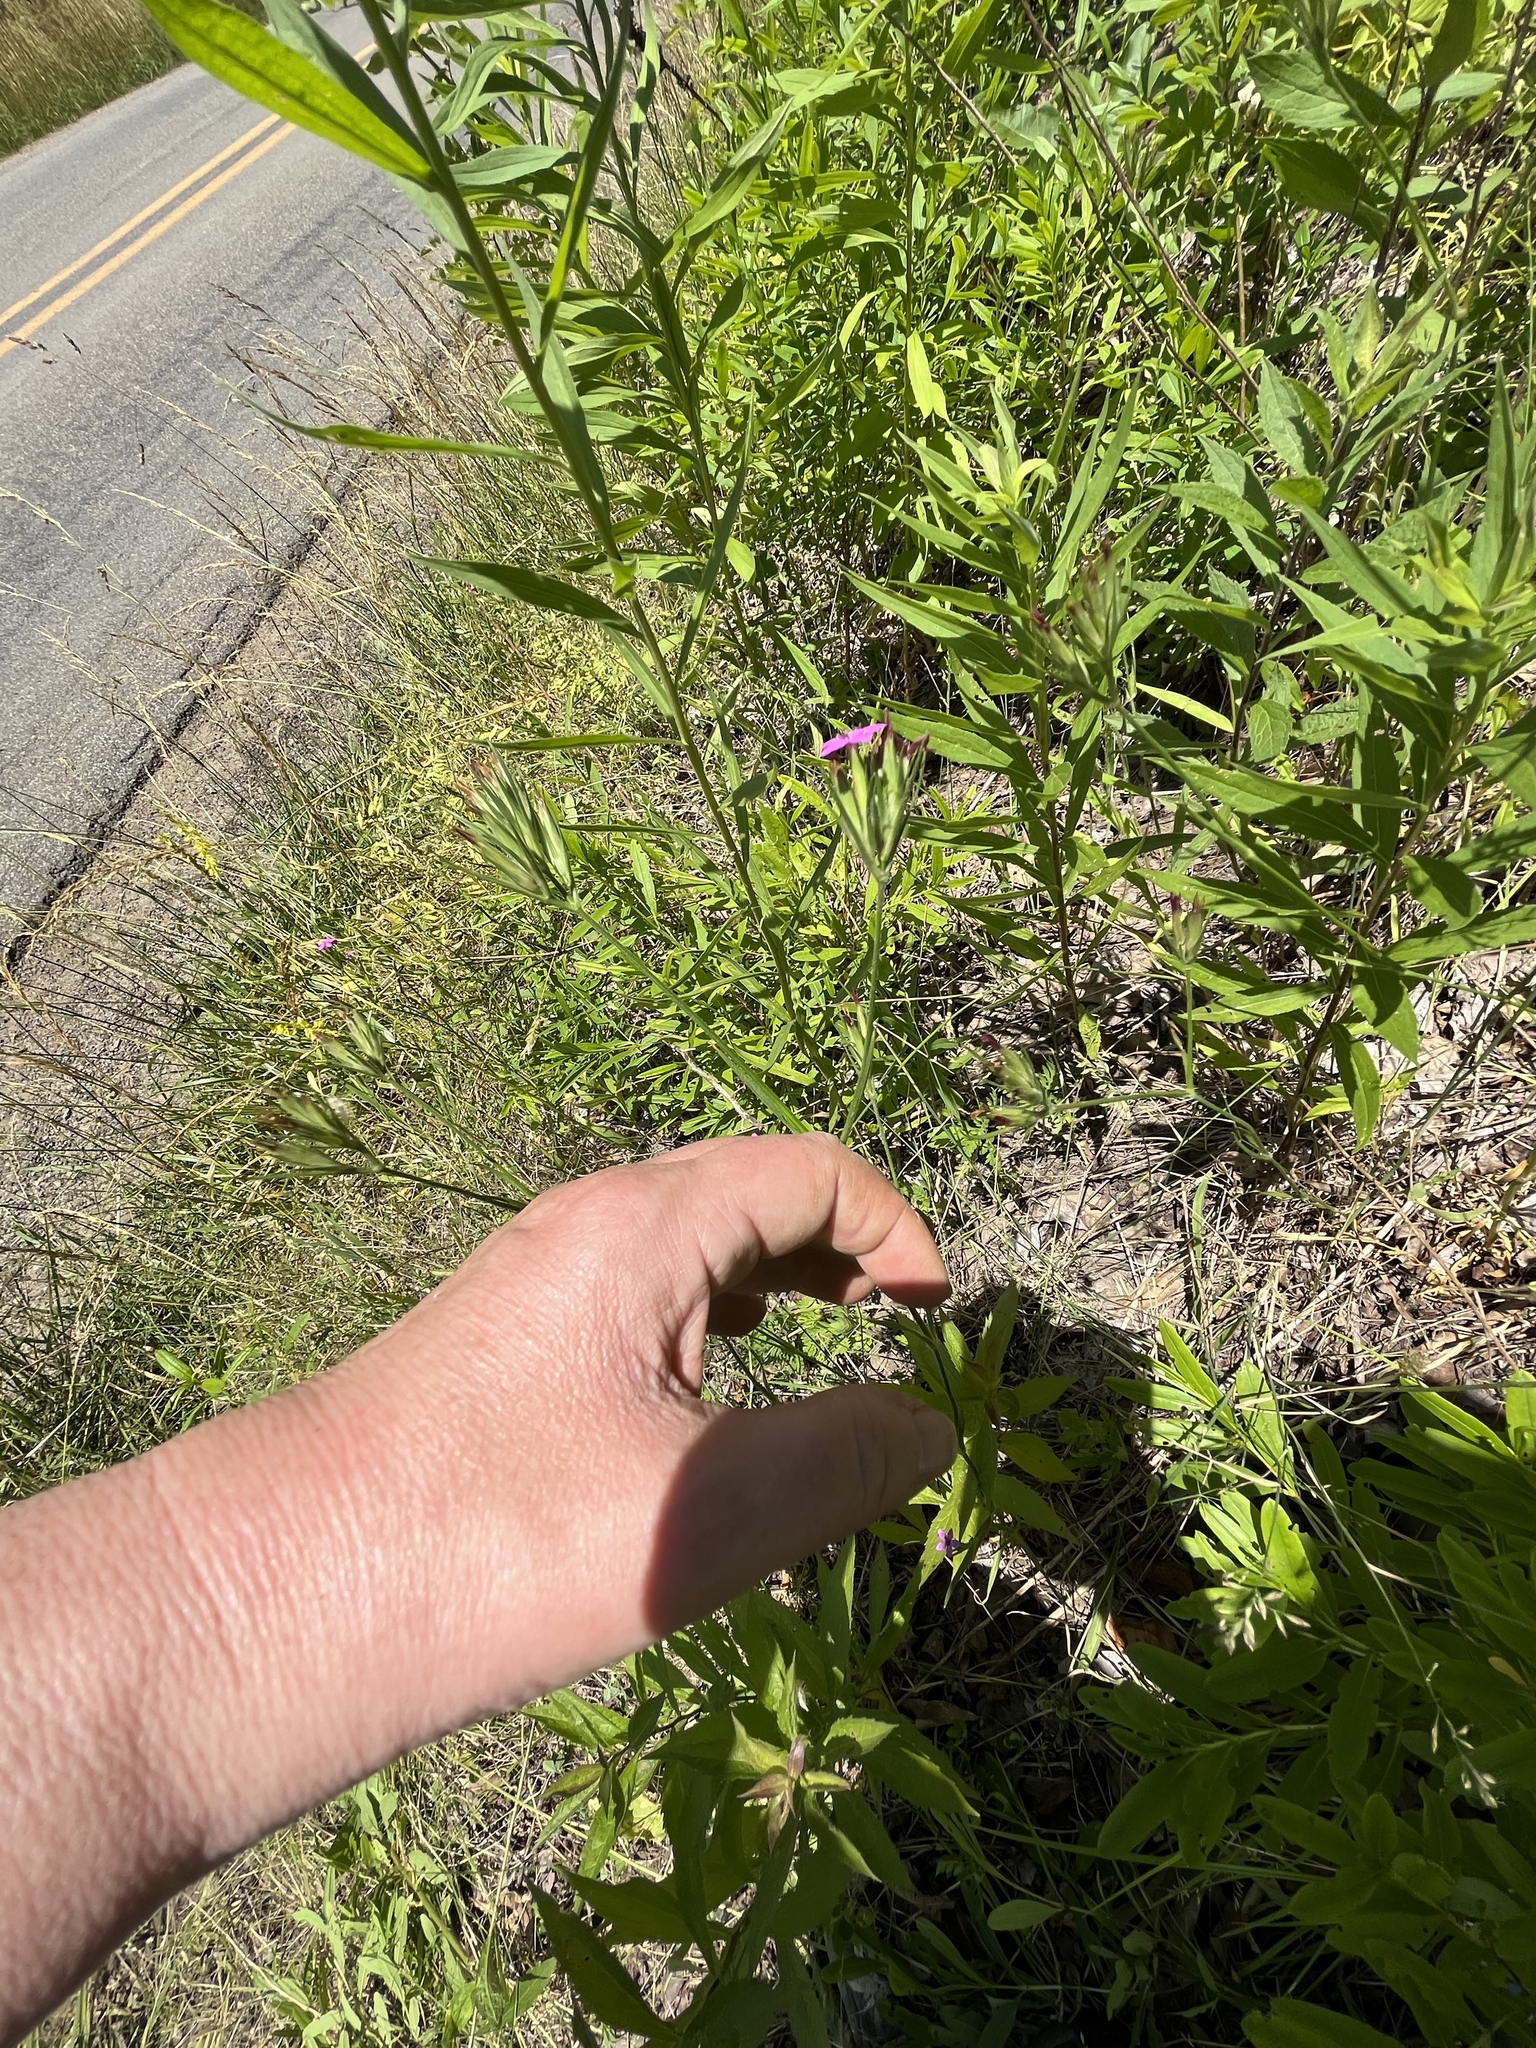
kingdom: Plantae
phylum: Tracheophyta
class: Magnoliopsida
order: Caryophyllales
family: Caryophyllaceae
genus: Dianthus
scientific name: Dianthus armeria
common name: Deptford pink
